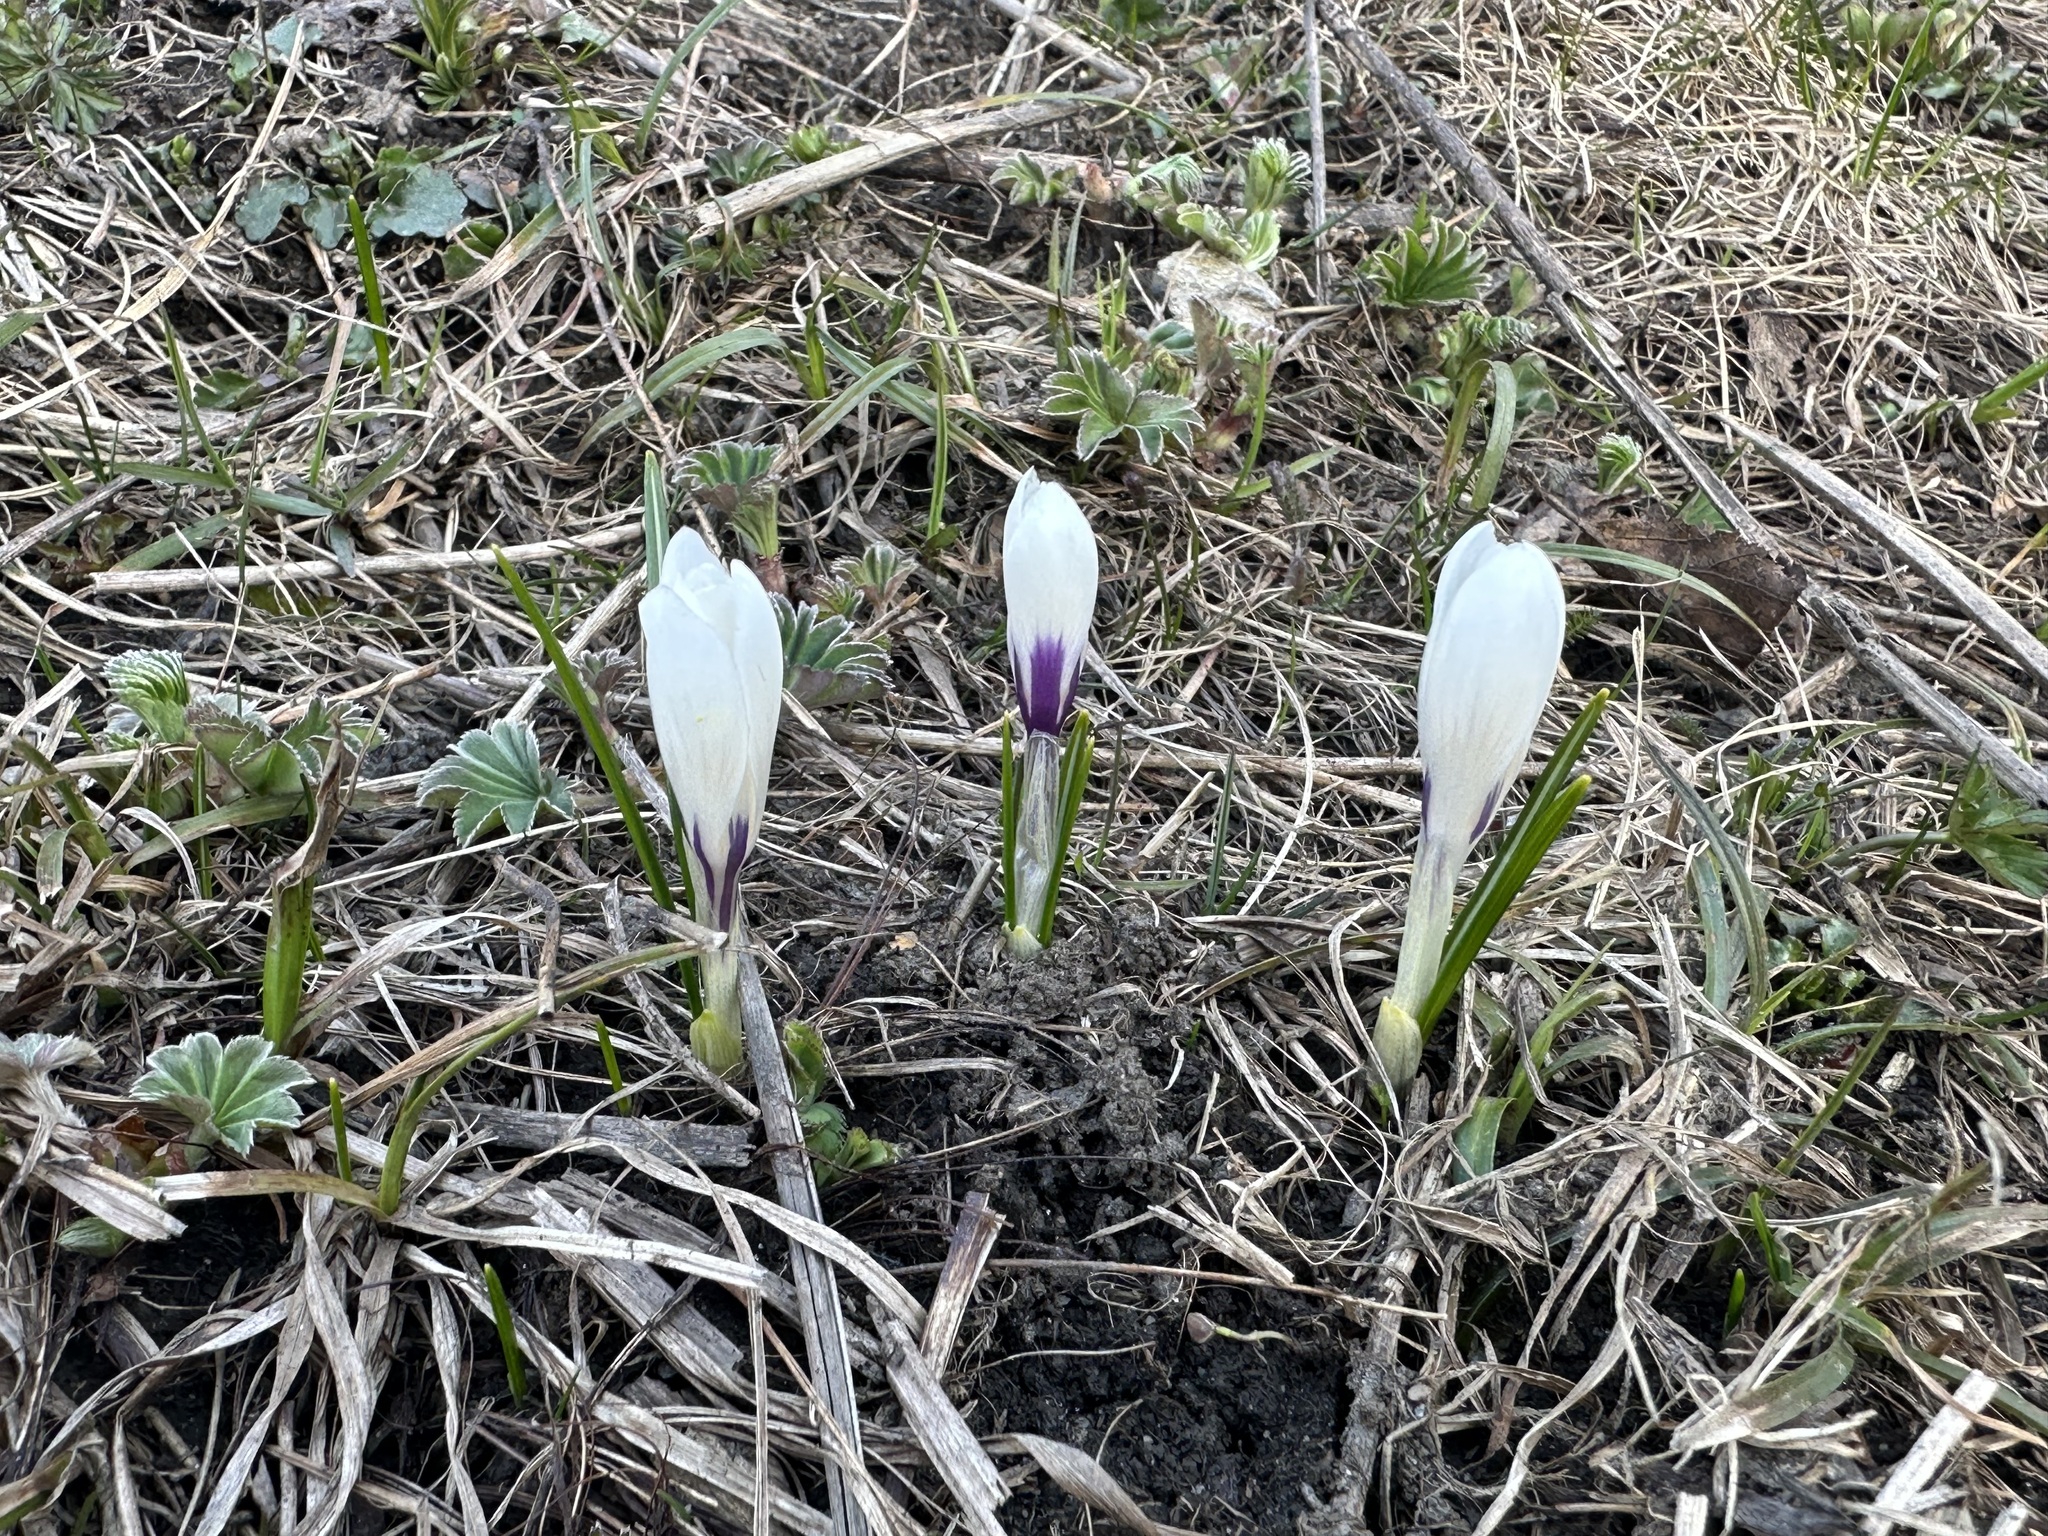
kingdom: Plantae
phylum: Tracheophyta
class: Liliopsida
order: Asparagales
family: Iridaceae
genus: Crocus
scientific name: Crocus vernus
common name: Spring crocus
